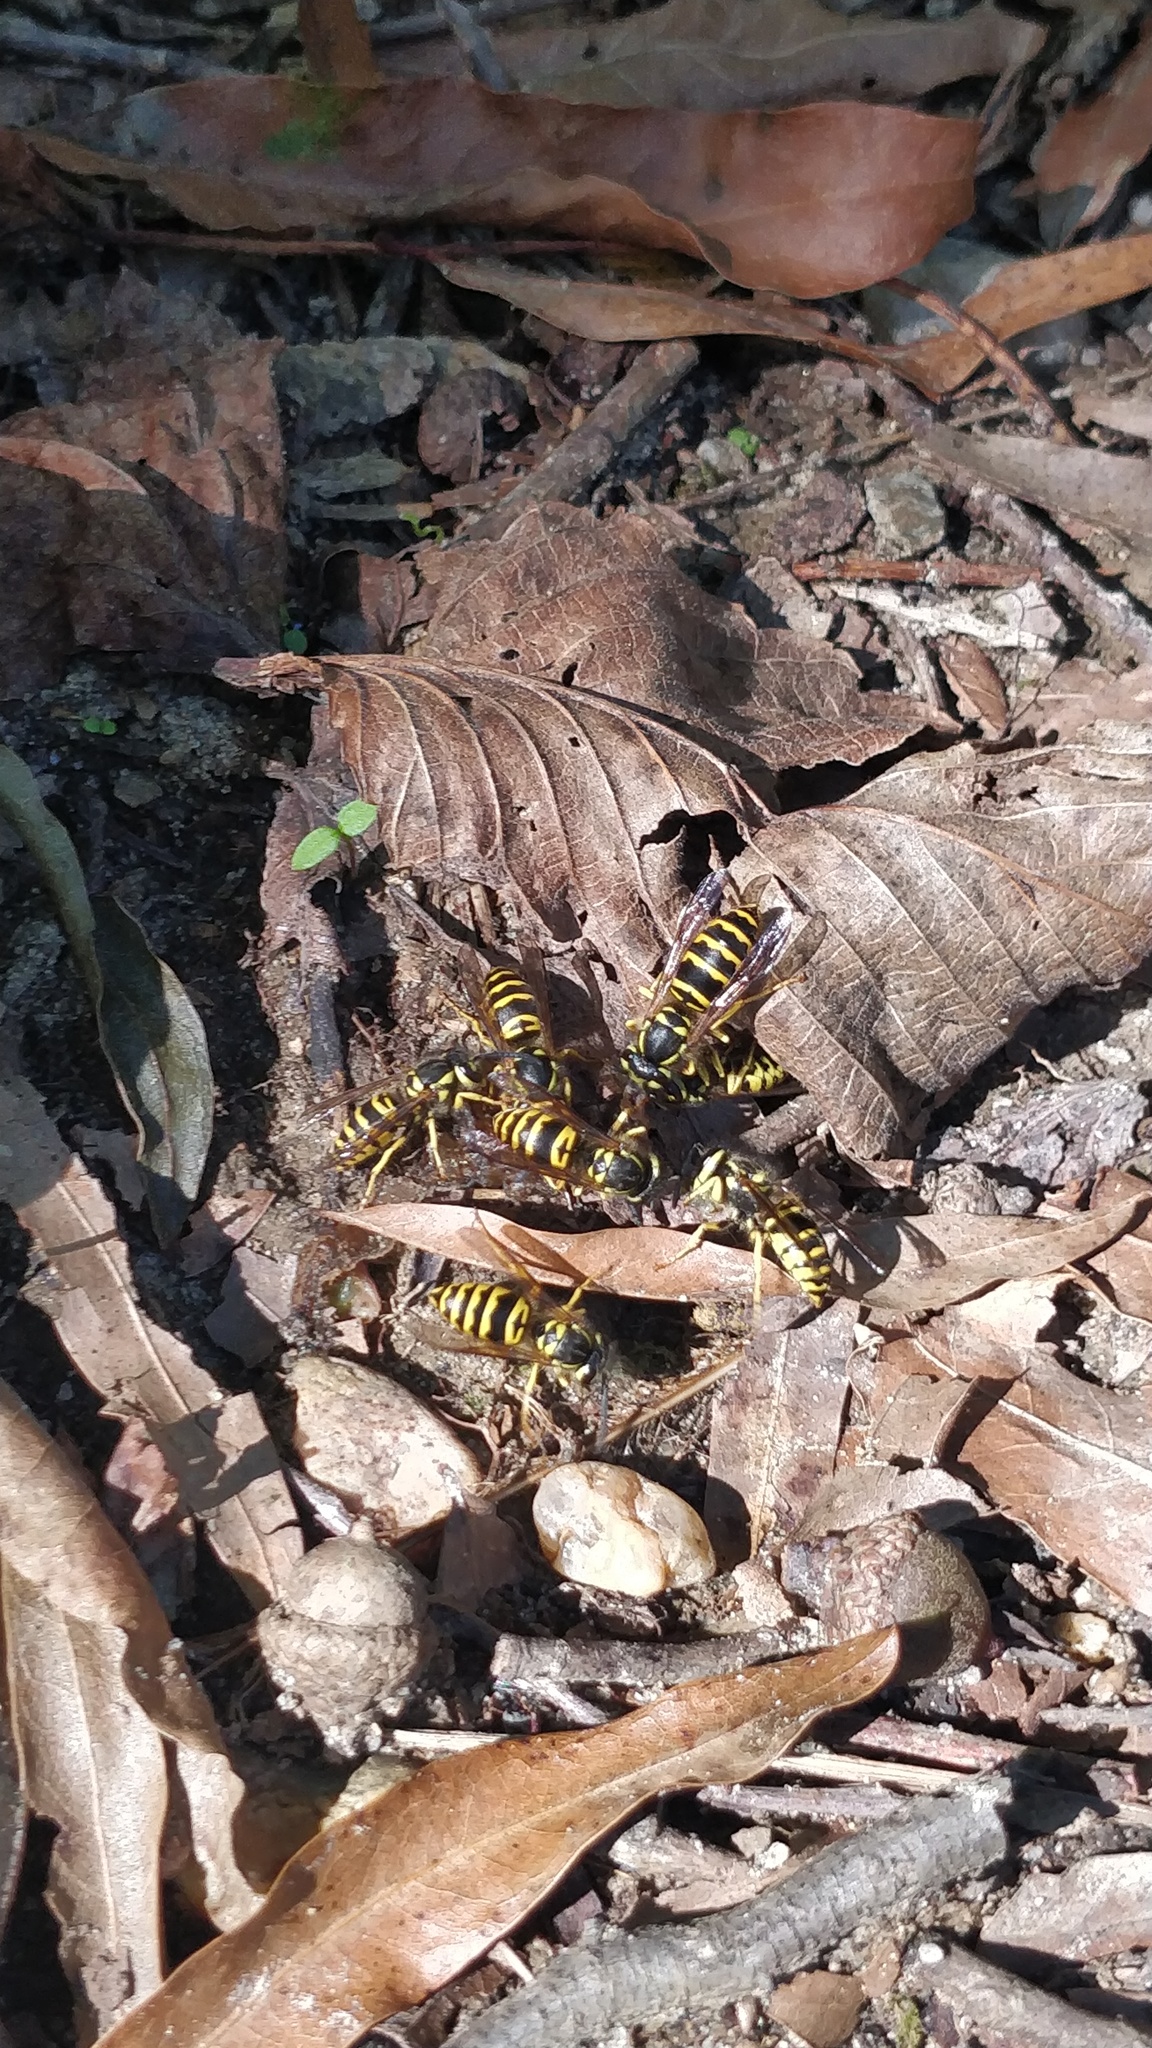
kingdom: Animalia
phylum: Arthropoda
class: Insecta
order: Hymenoptera
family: Vespidae
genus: Vespula
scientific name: Vespula maculifrons
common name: Eastern yellowjacket
